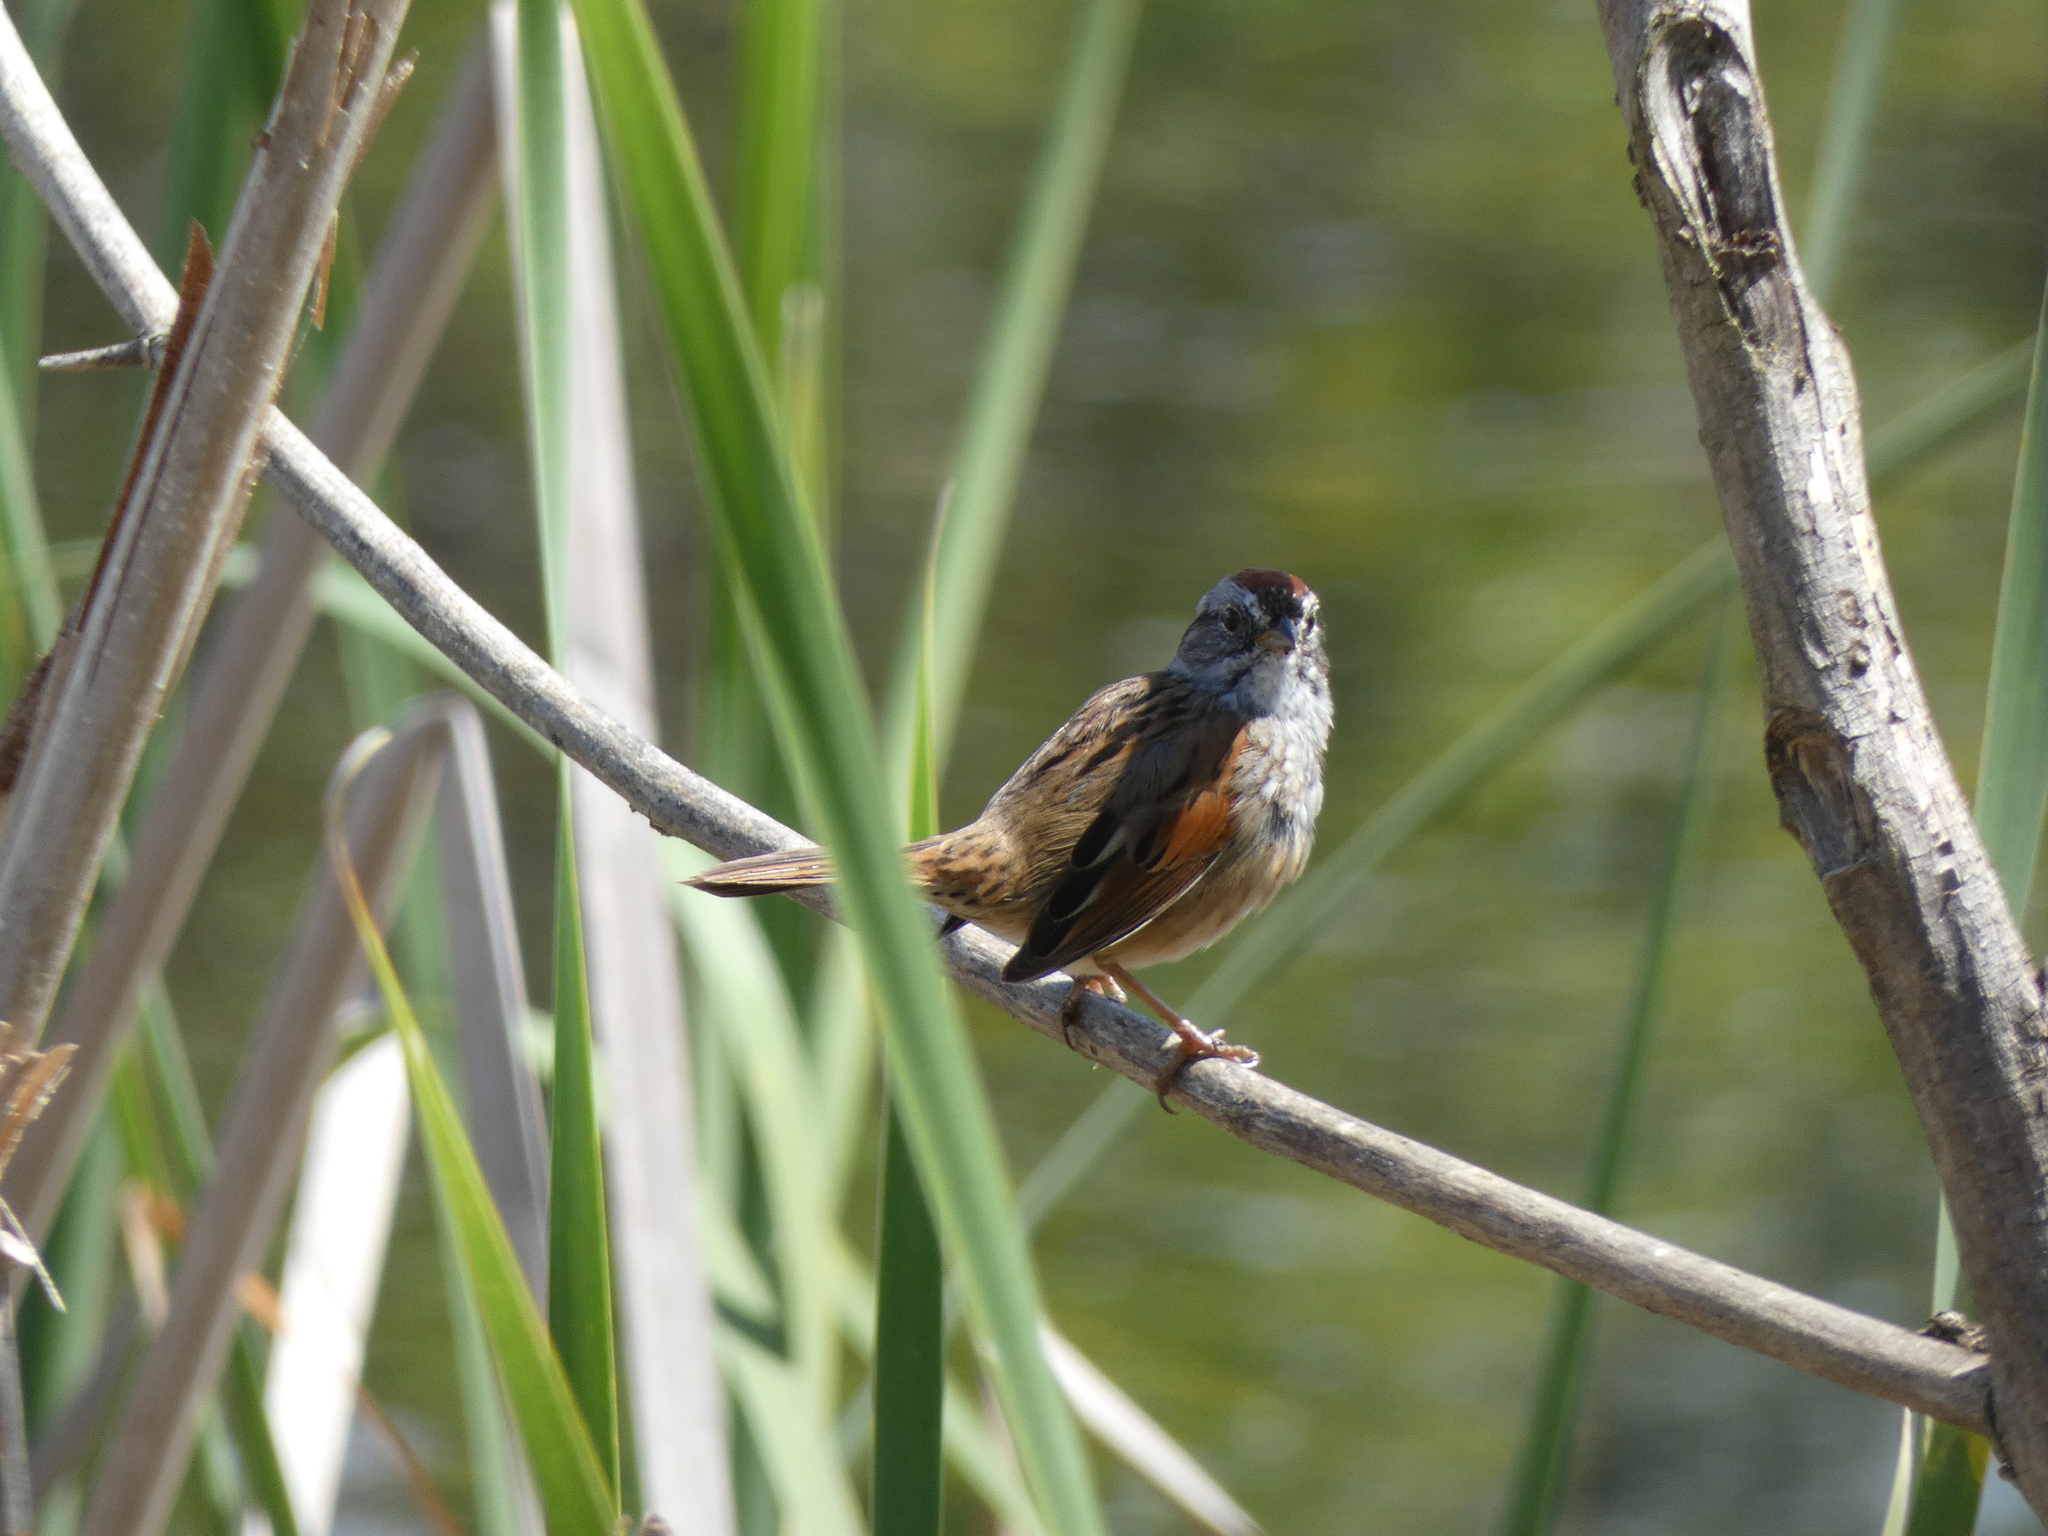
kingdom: Animalia
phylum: Chordata
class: Aves
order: Passeriformes
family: Passerellidae
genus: Melospiza
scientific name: Melospiza georgiana
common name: Swamp sparrow
